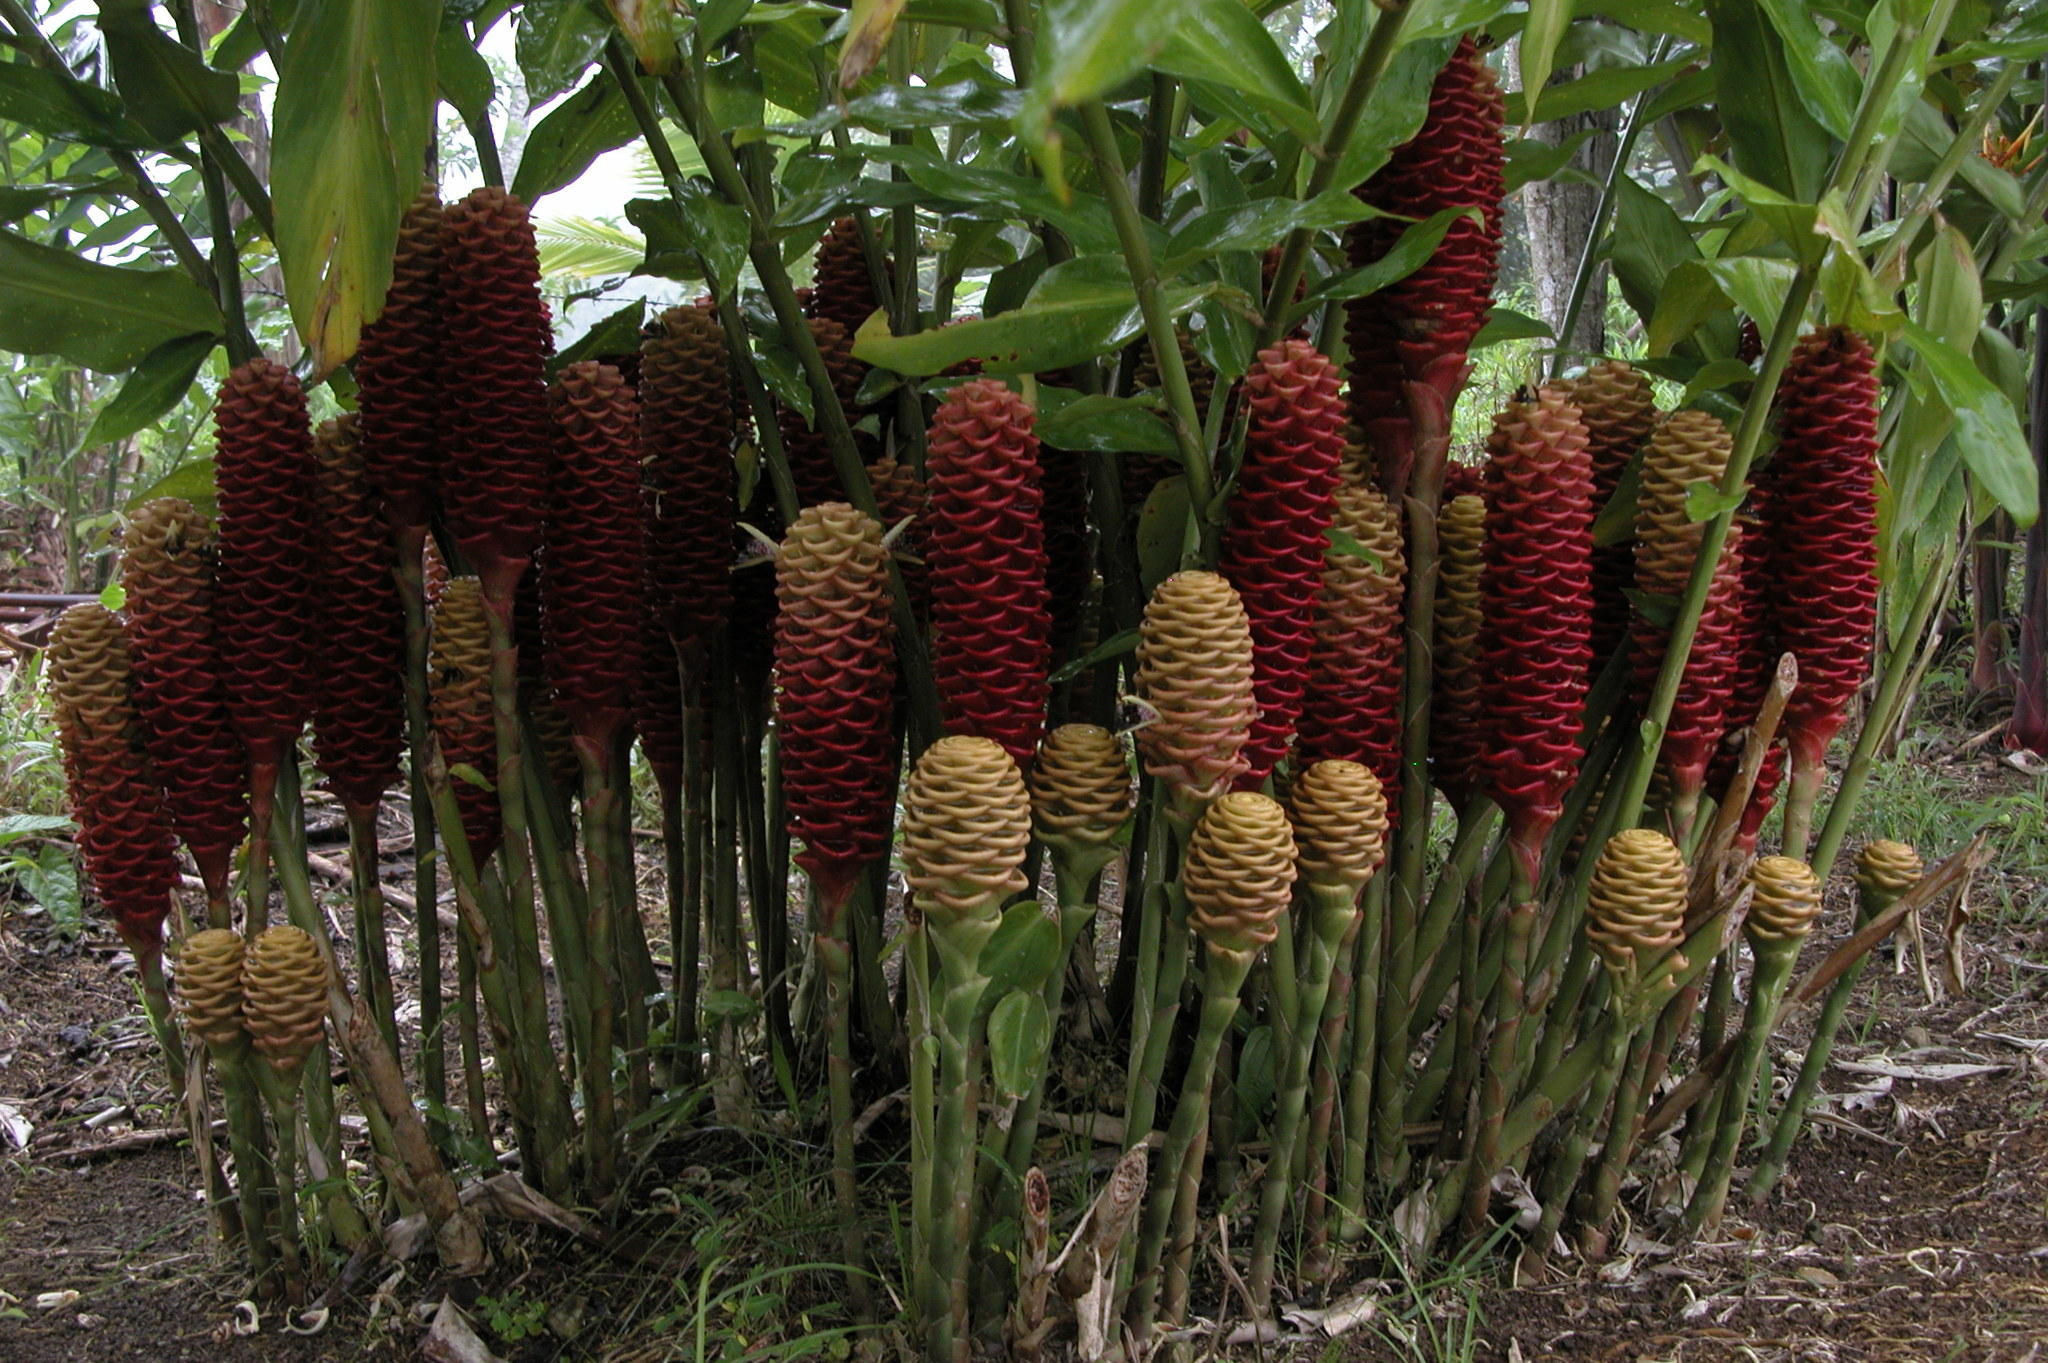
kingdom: Plantae
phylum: Tracheophyta
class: Liliopsida
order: Zingiberales
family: Zingiberaceae
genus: Zingiber
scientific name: Zingiber spectabile
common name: Beehive ginger
